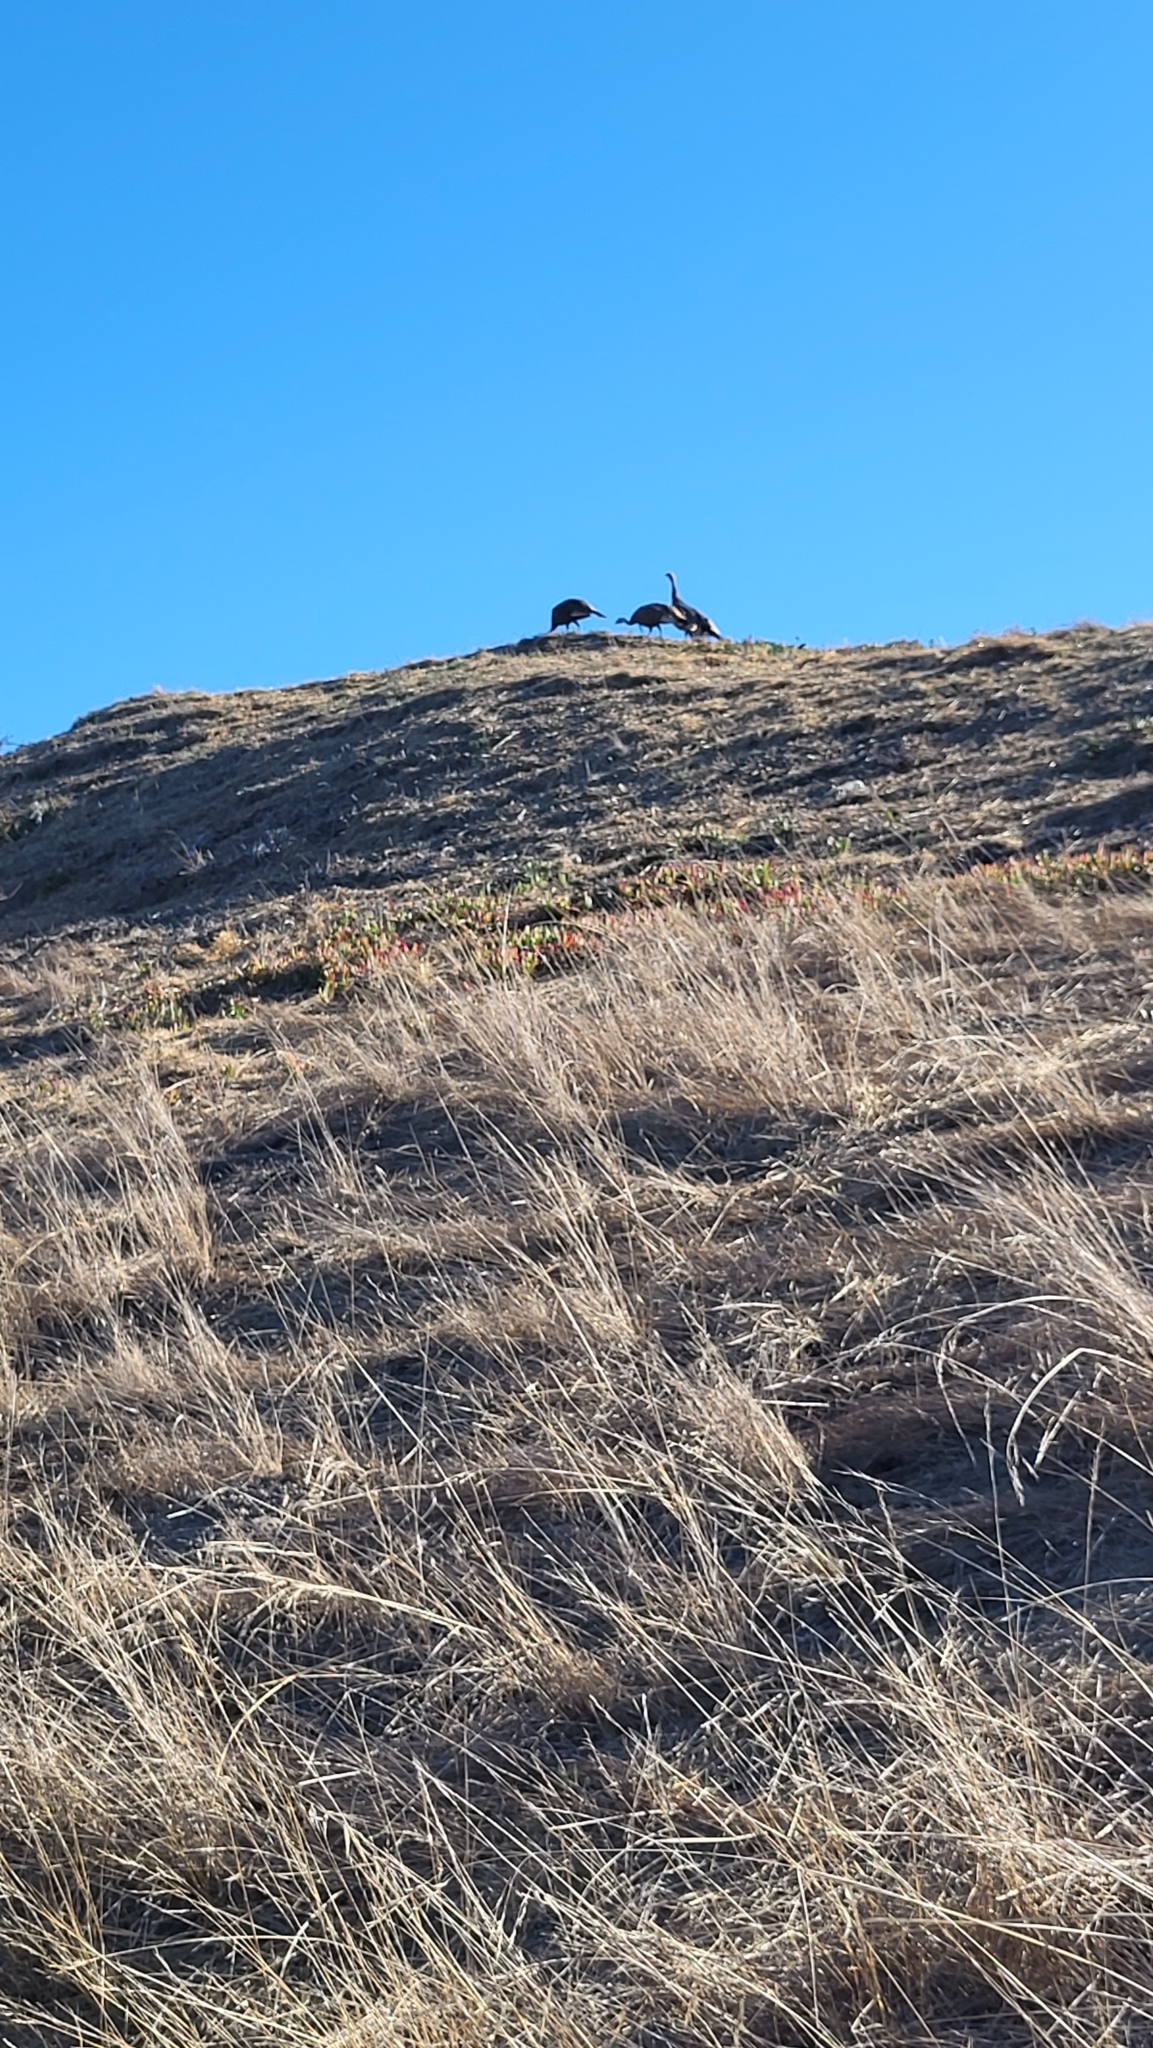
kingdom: Animalia
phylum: Chordata
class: Aves
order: Galliformes
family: Phasianidae
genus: Meleagris
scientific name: Meleagris gallopavo
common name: Wild turkey
